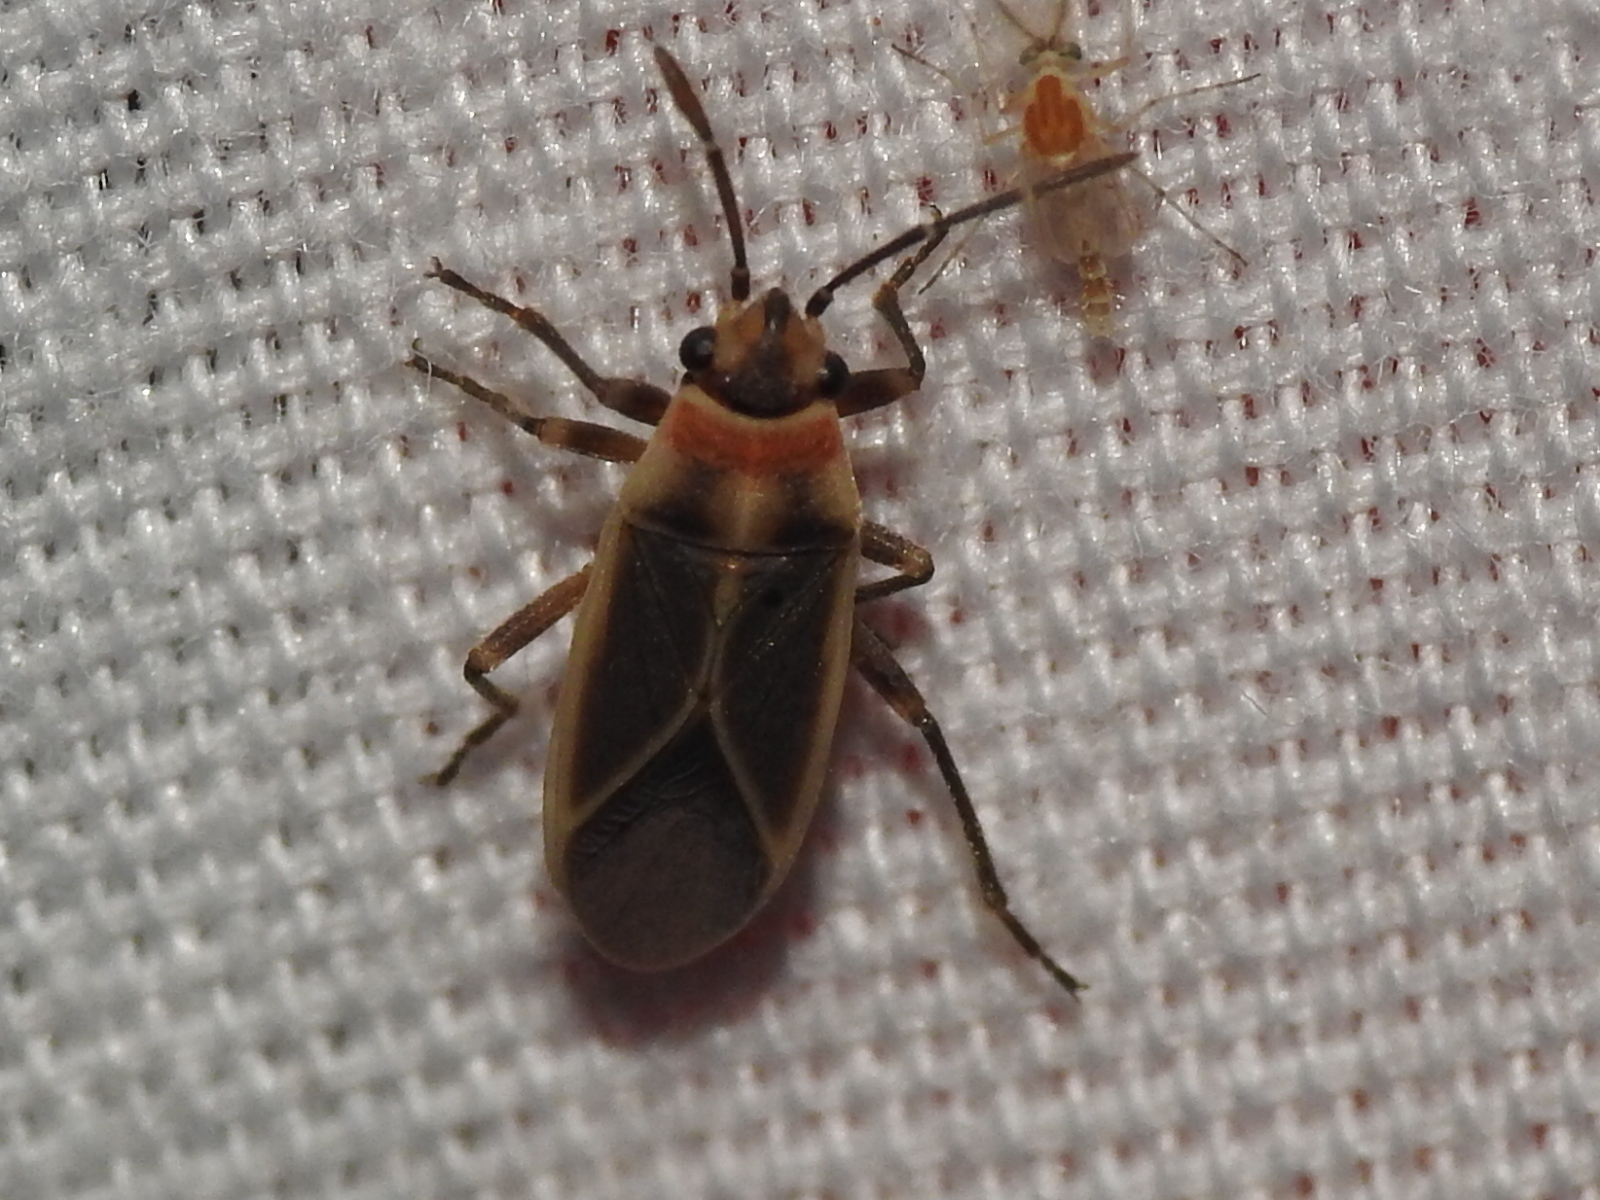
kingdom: Animalia
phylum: Arthropoda
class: Insecta
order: Hemiptera
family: Lygaeidae
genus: Ochrimnus
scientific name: Ochrimnus mimulus
